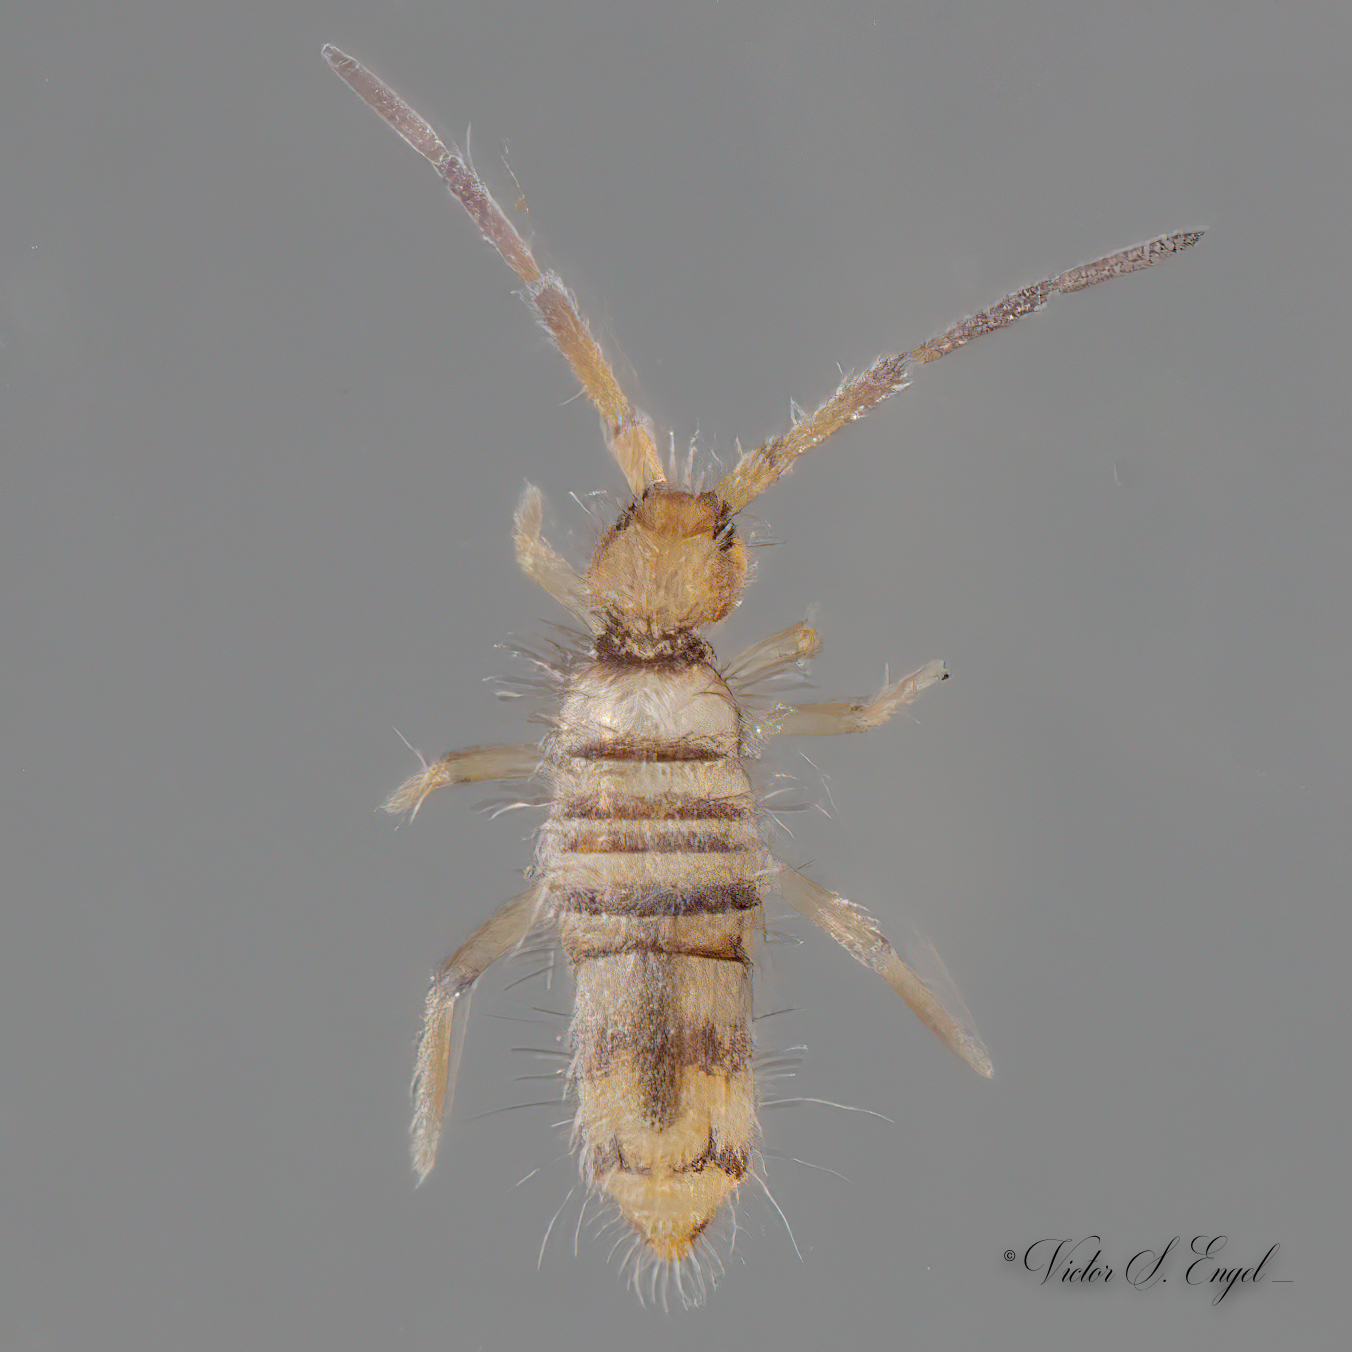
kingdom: Animalia
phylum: Arthropoda
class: Collembola
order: Entomobryomorpha
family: Entomobryidae
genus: Entomobrya
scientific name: Entomobrya atrocincta
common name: Springtail
